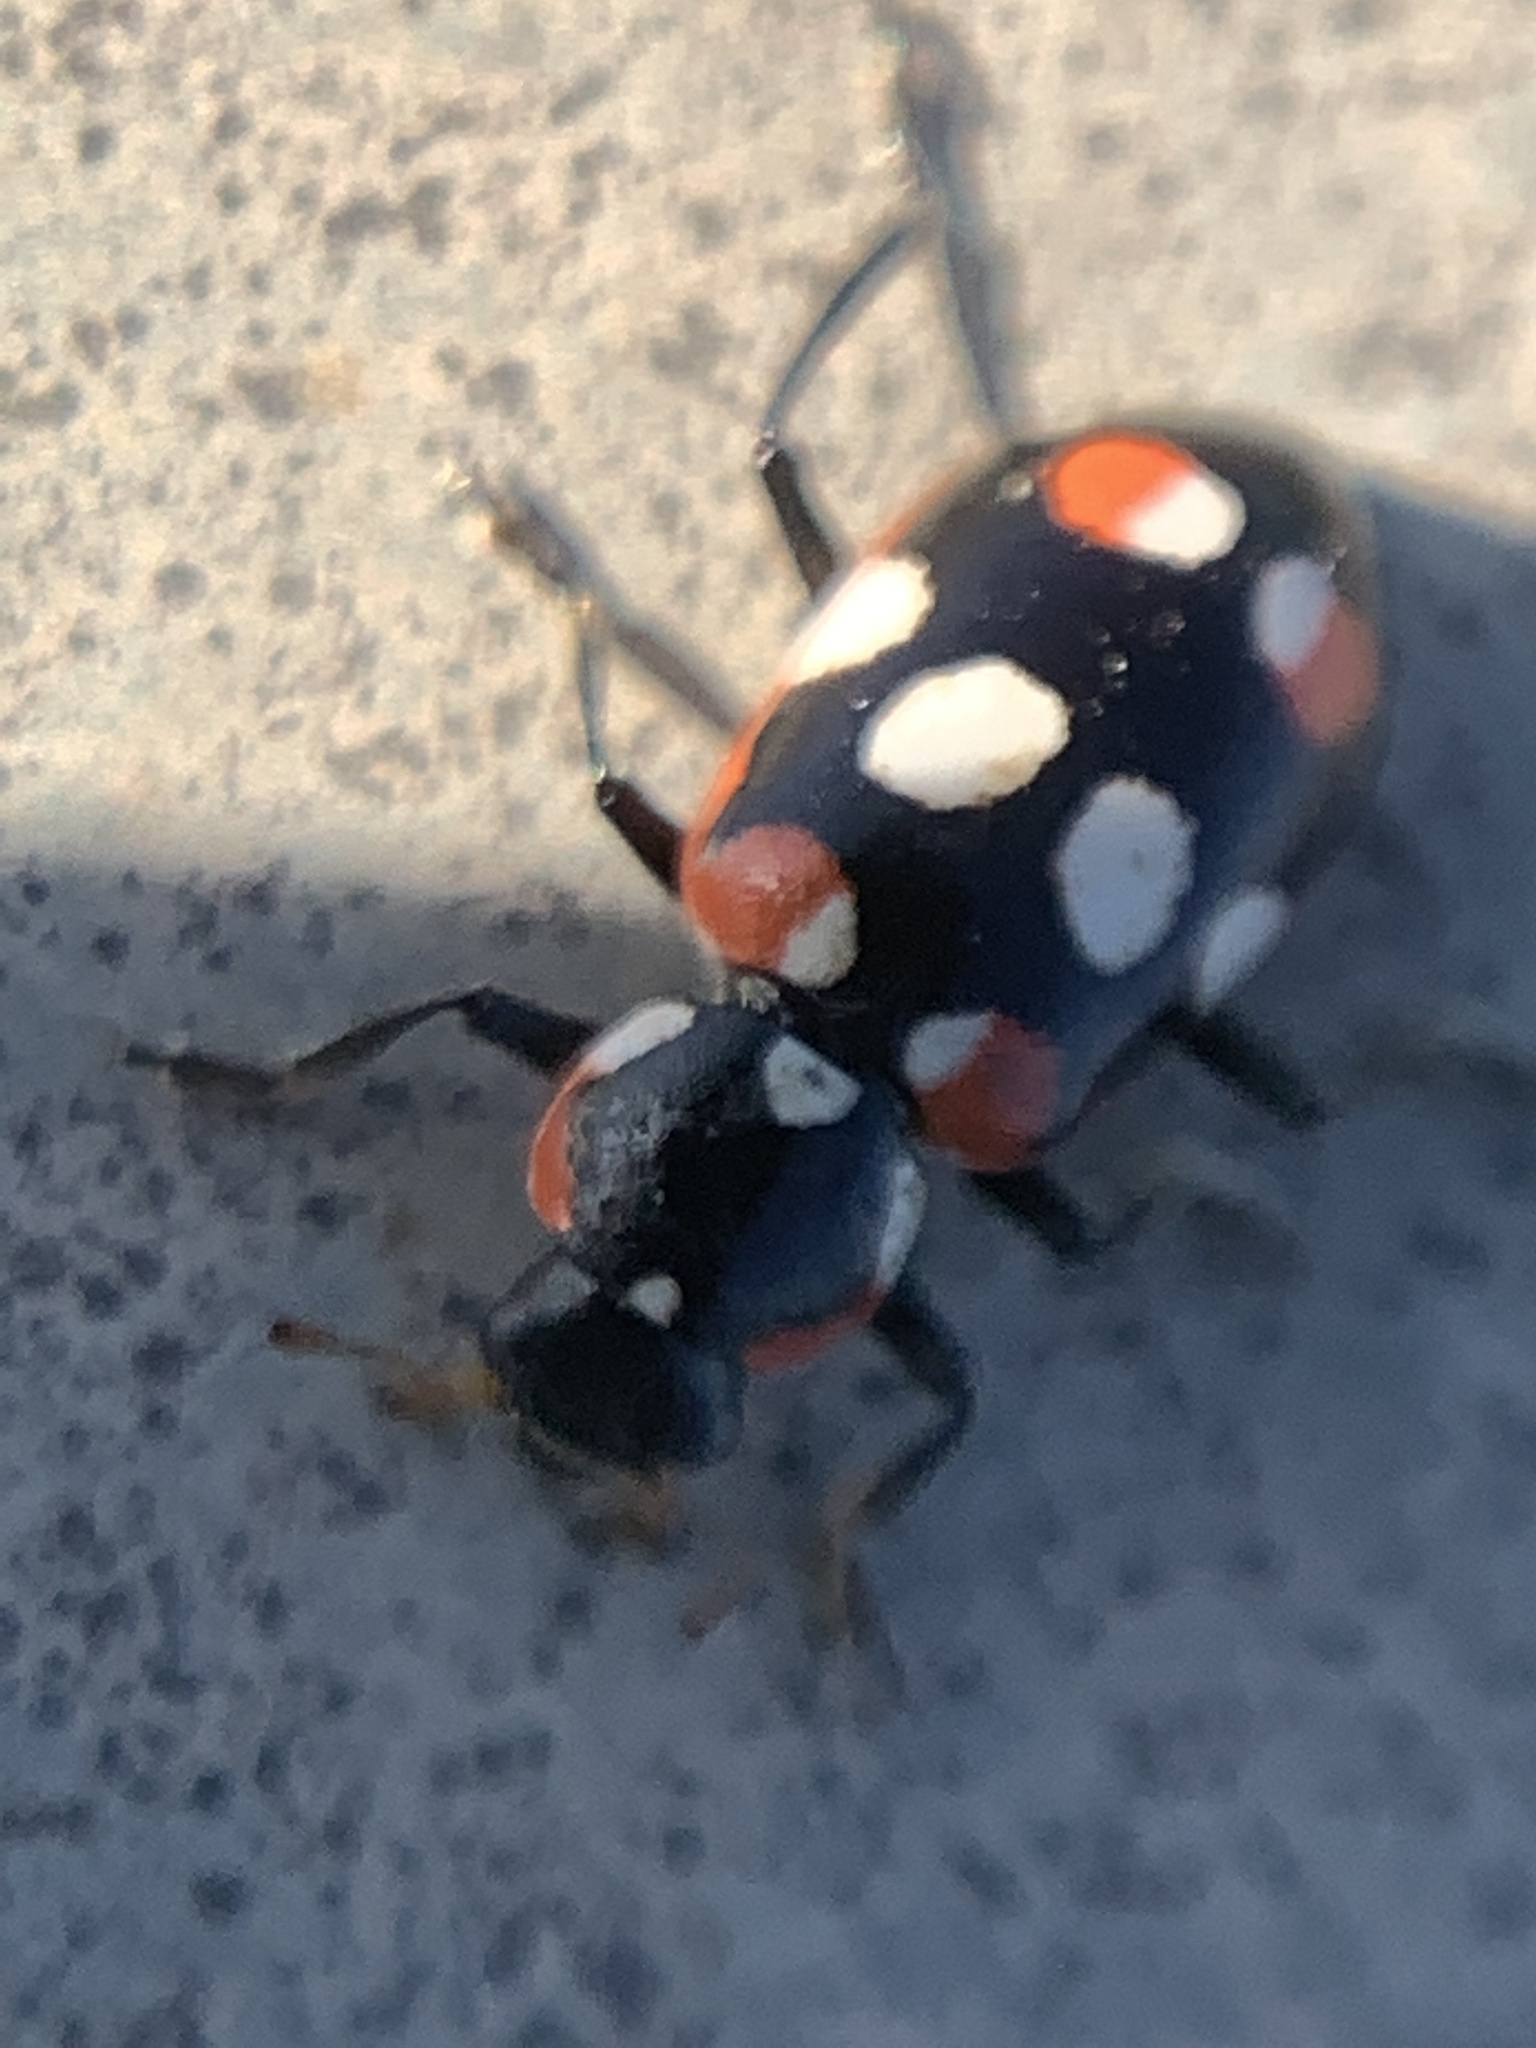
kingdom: Animalia
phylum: Arthropoda
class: Insecta
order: Coleoptera
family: Coccinellidae
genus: Eriopis
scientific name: Eriopis connexa
